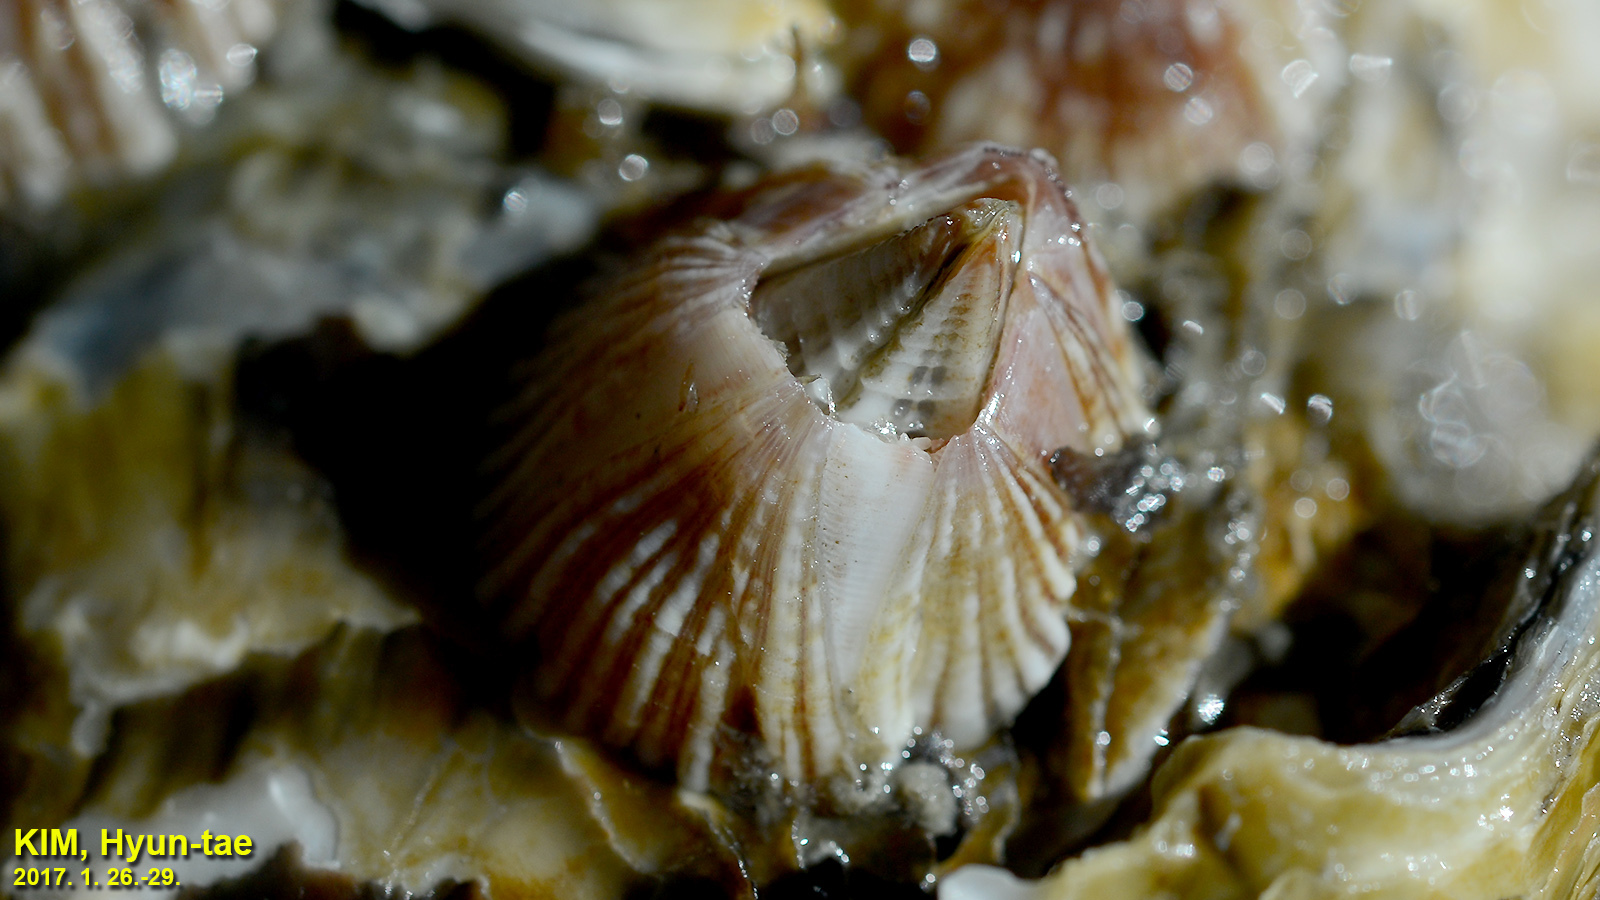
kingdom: Animalia
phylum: Arthropoda
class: Maxillopoda
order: Sessilia
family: Balanidae
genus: Balanus
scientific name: Balanus trigonus
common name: Triangle barnacle
